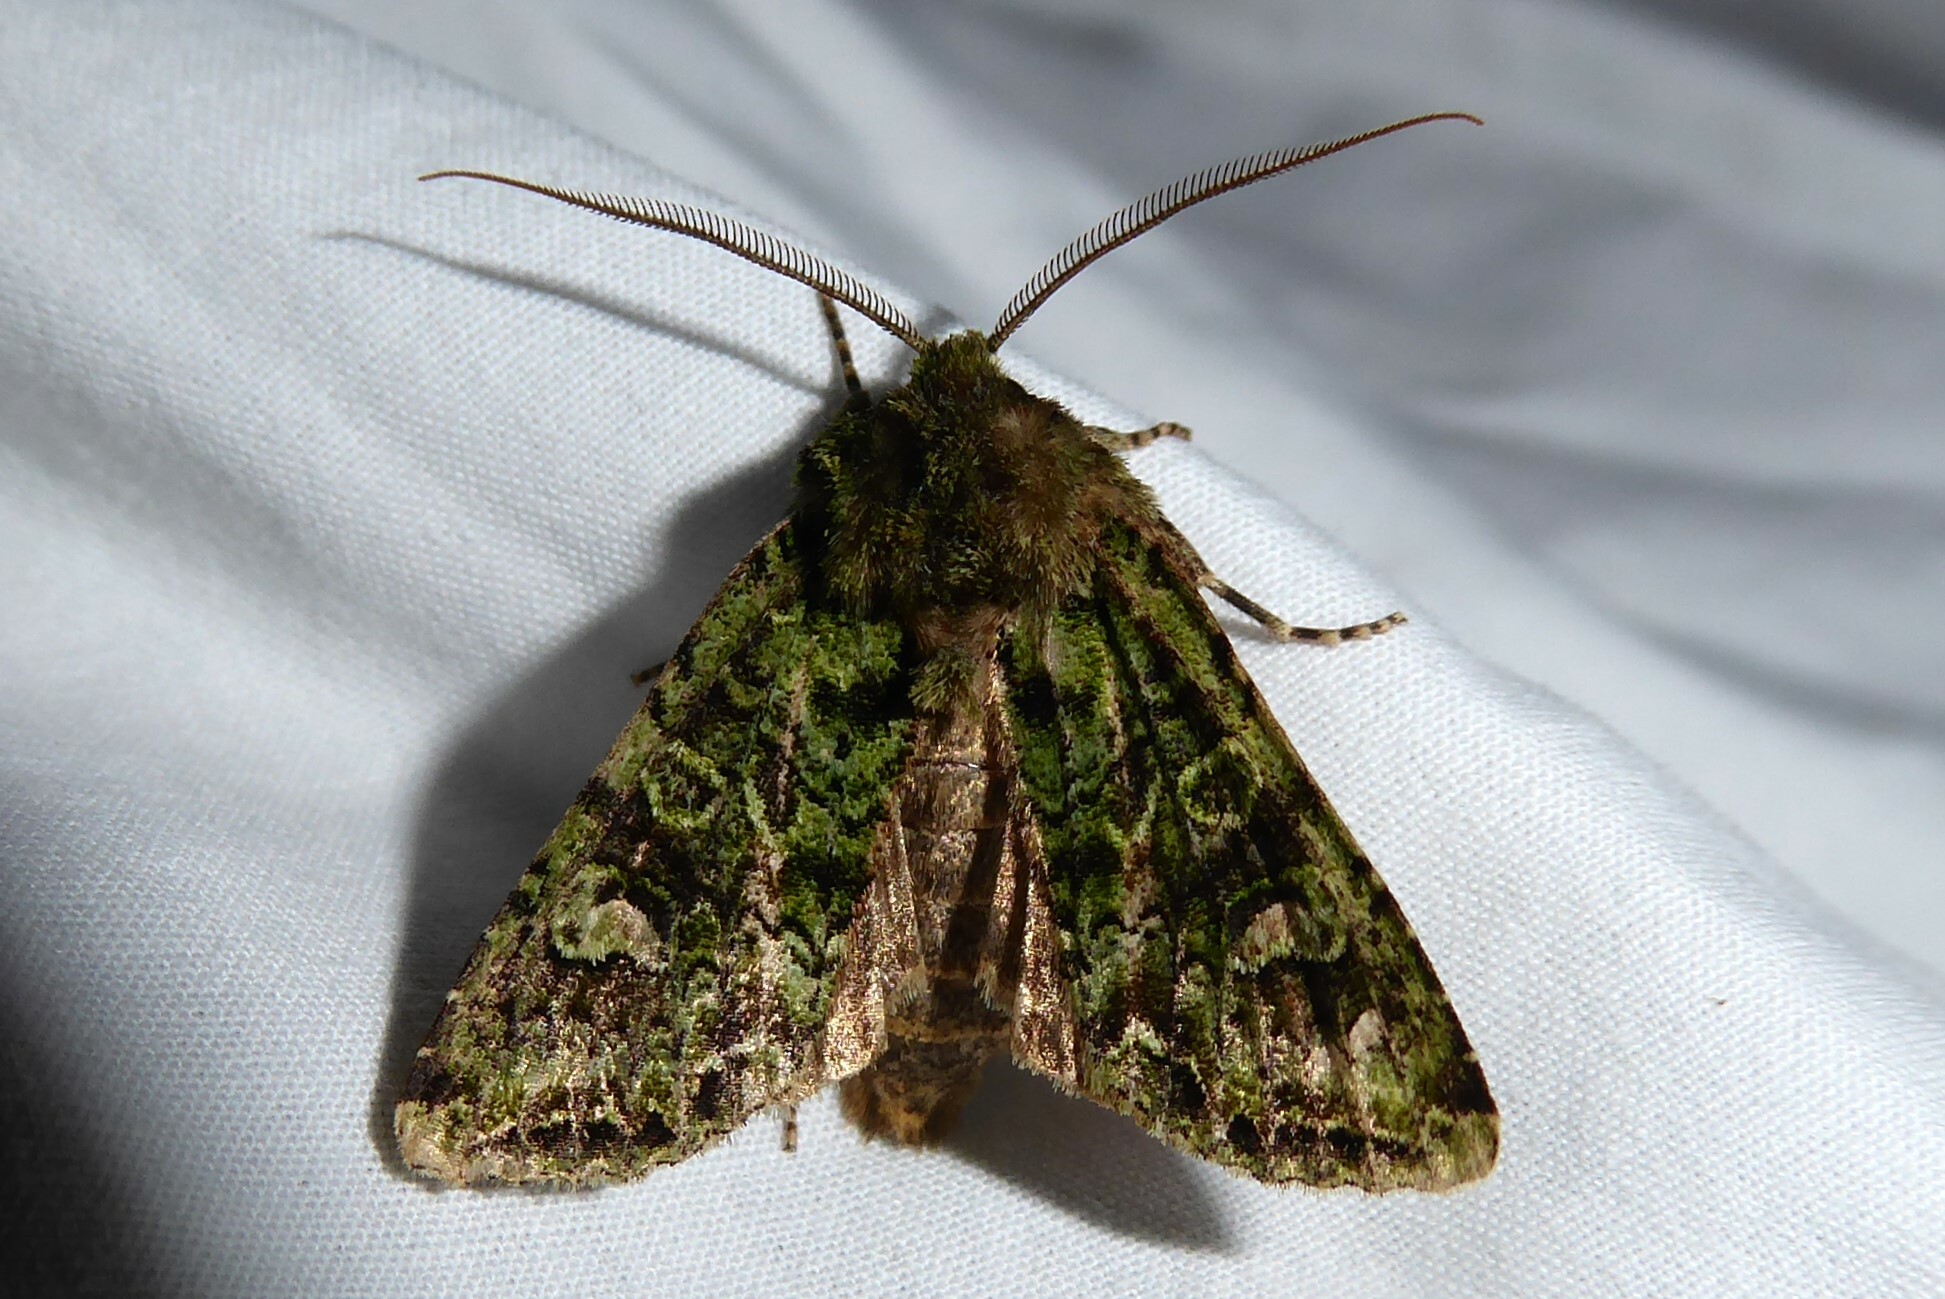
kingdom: Animalia
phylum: Arthropoda
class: Insecta
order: Lepidoptera
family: Noctuidae
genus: Ichneutica
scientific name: Ichneutica
